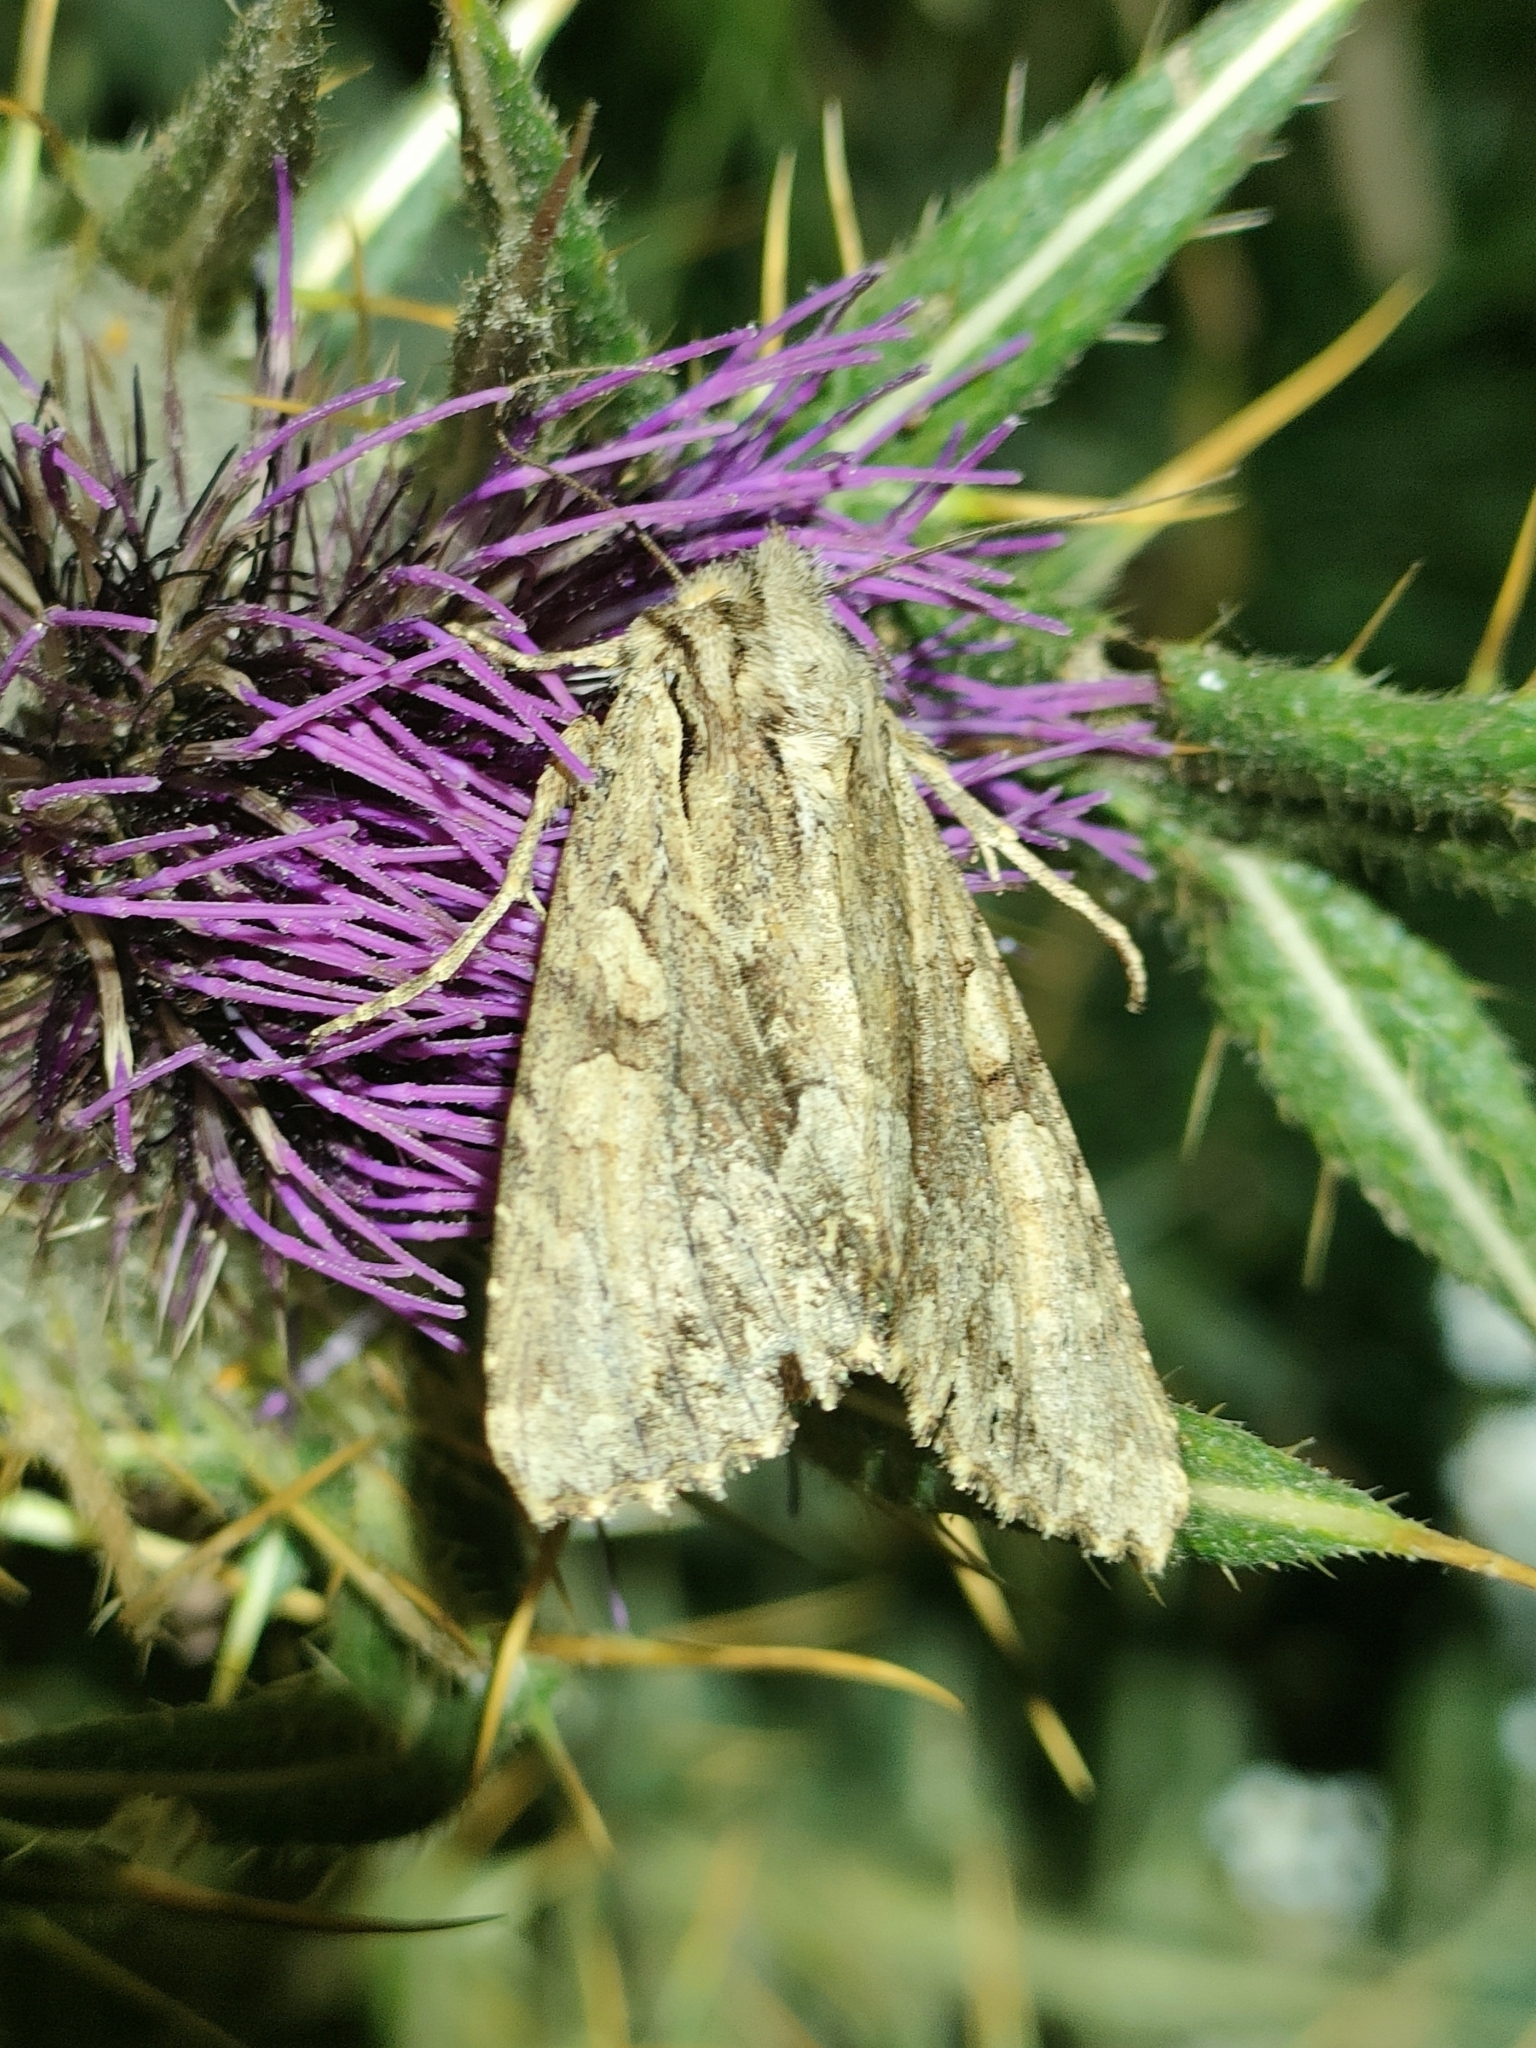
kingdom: Animalia
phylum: Arthropoda
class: Insecta
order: Lepidoptera
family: Noctuidae
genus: Apamea
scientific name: Apamea monoglypha
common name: Dark arches
